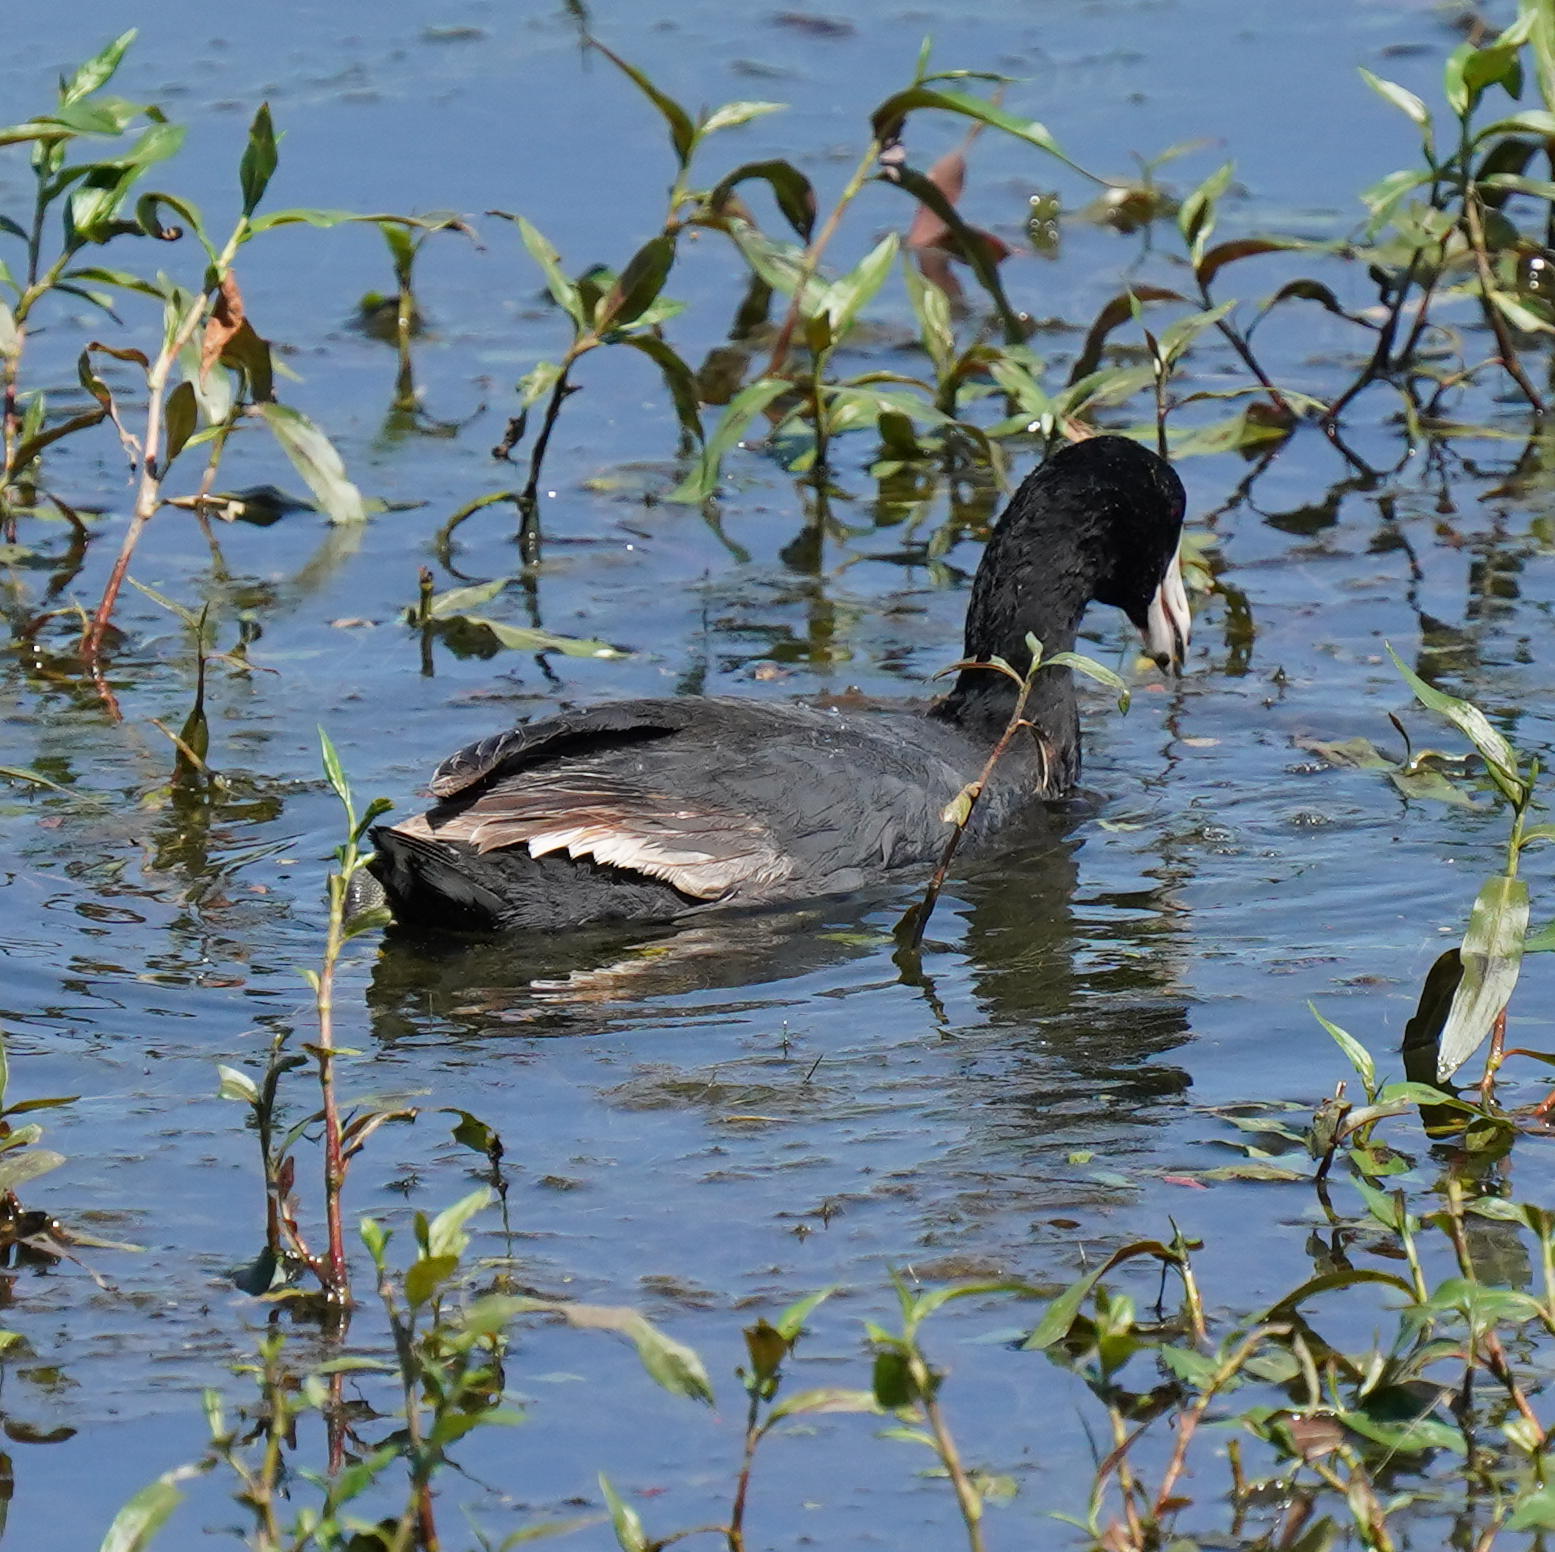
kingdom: Animalia
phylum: Chordata
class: Aves
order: Gruiformes
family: Rallidae
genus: Fulica
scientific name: Fulica americana
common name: American coot
